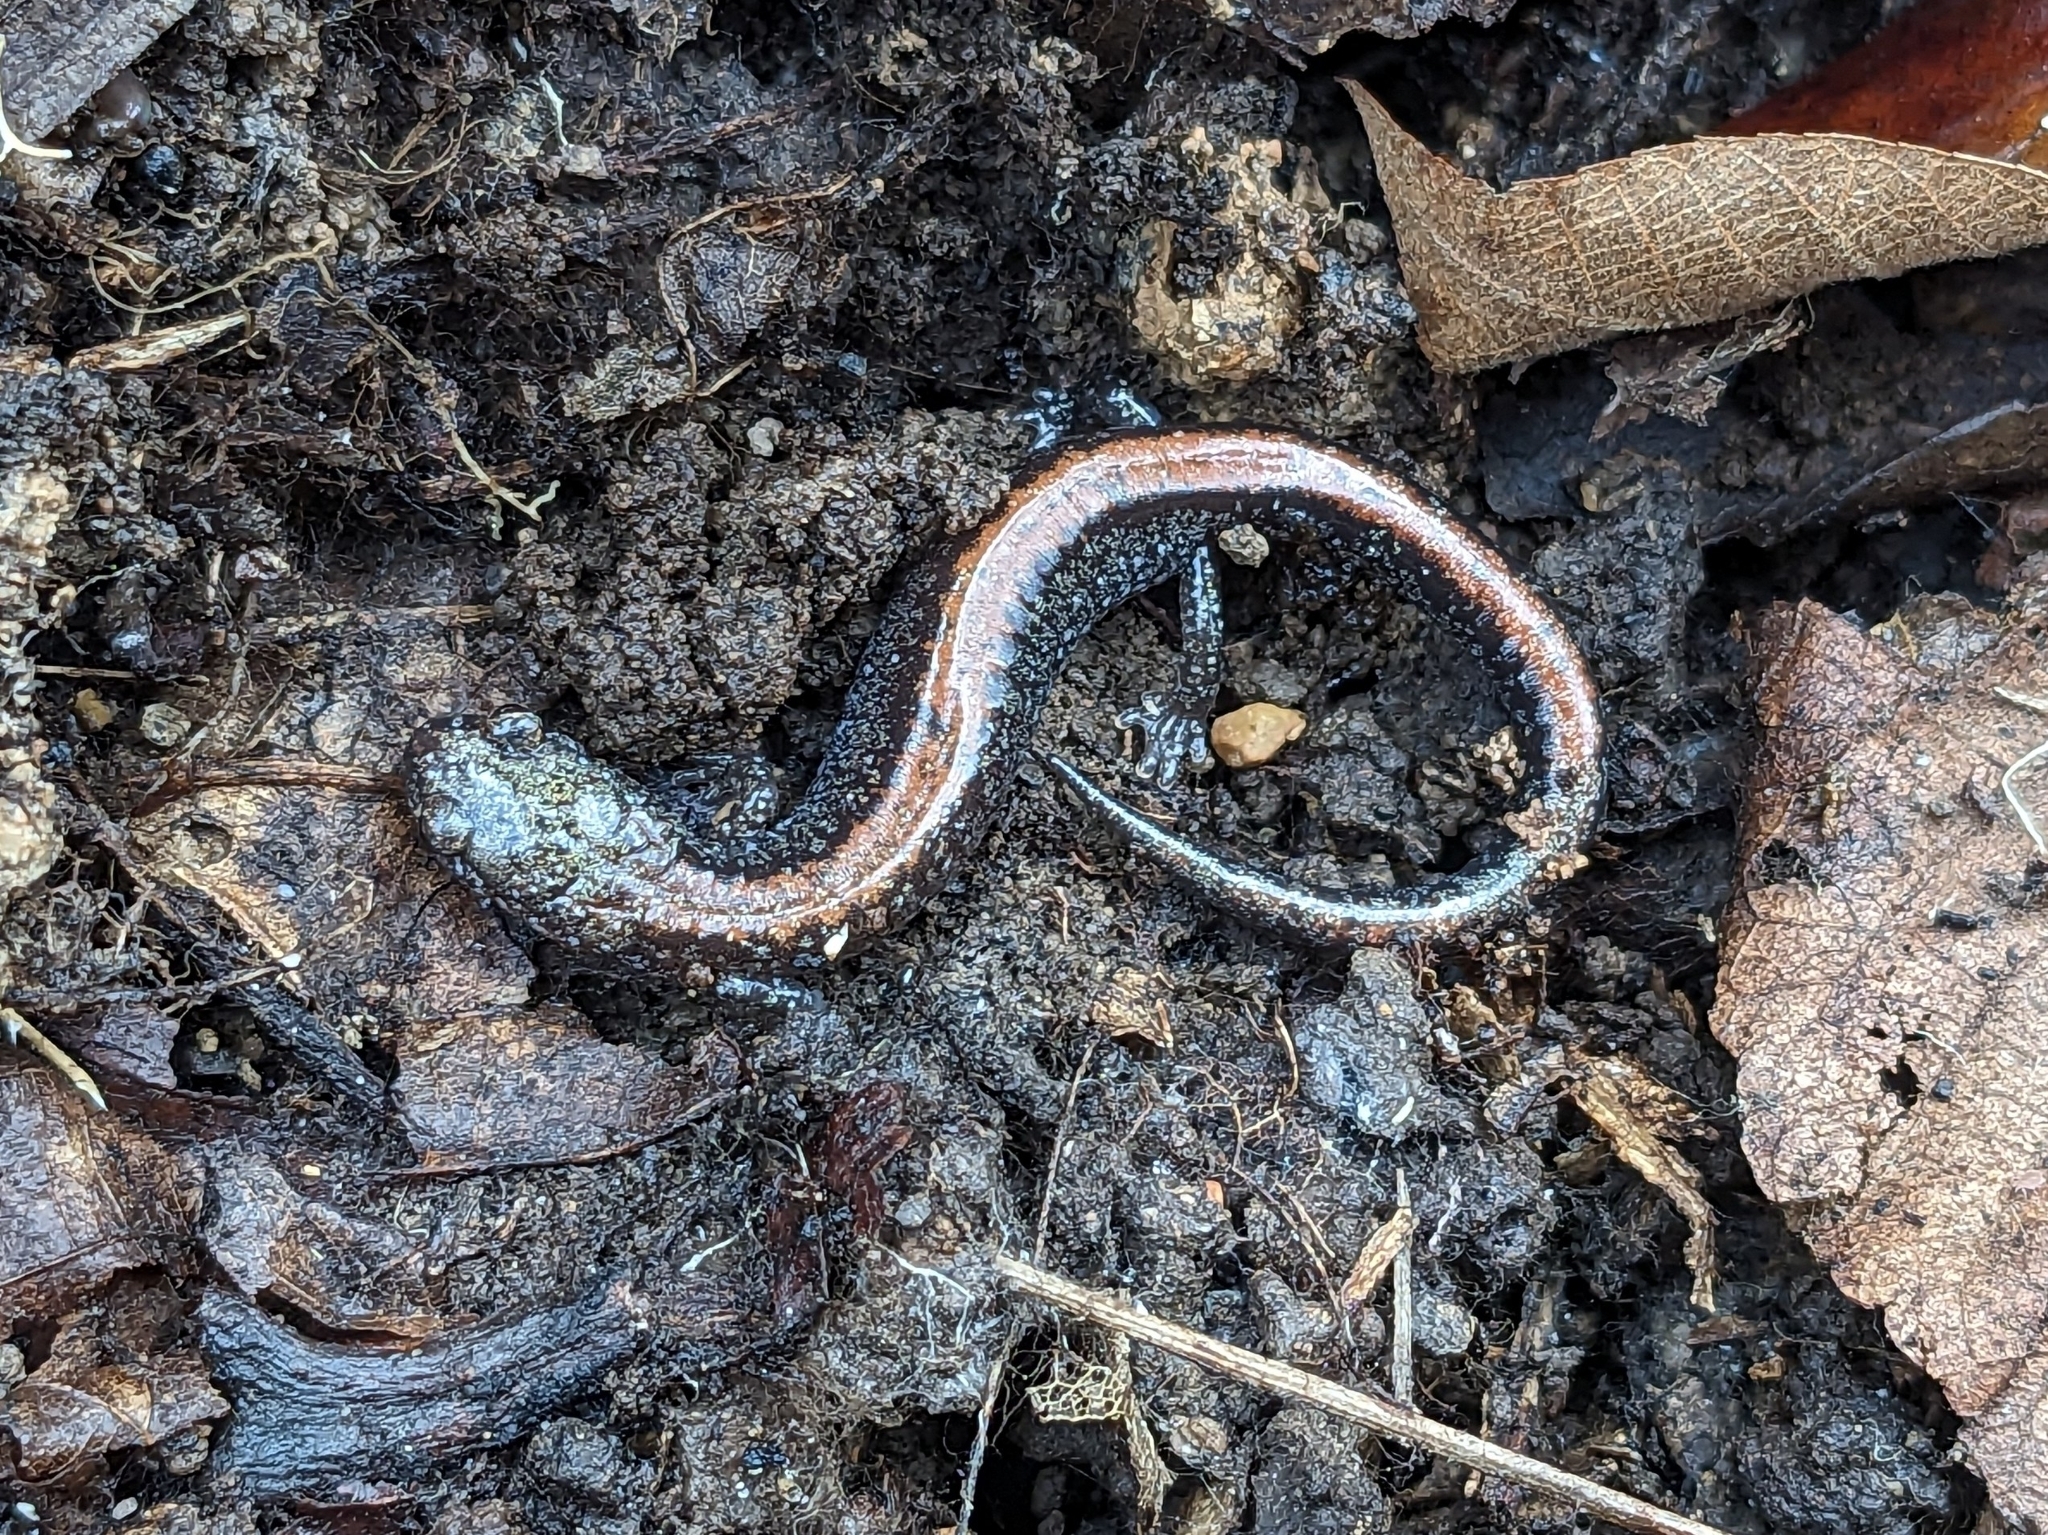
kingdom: Animalia
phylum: Chordata
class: Amphibia
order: Caudata
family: Plethodontidae
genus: Plethodon
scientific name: Plethodon cinereus
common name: Redback salamander
